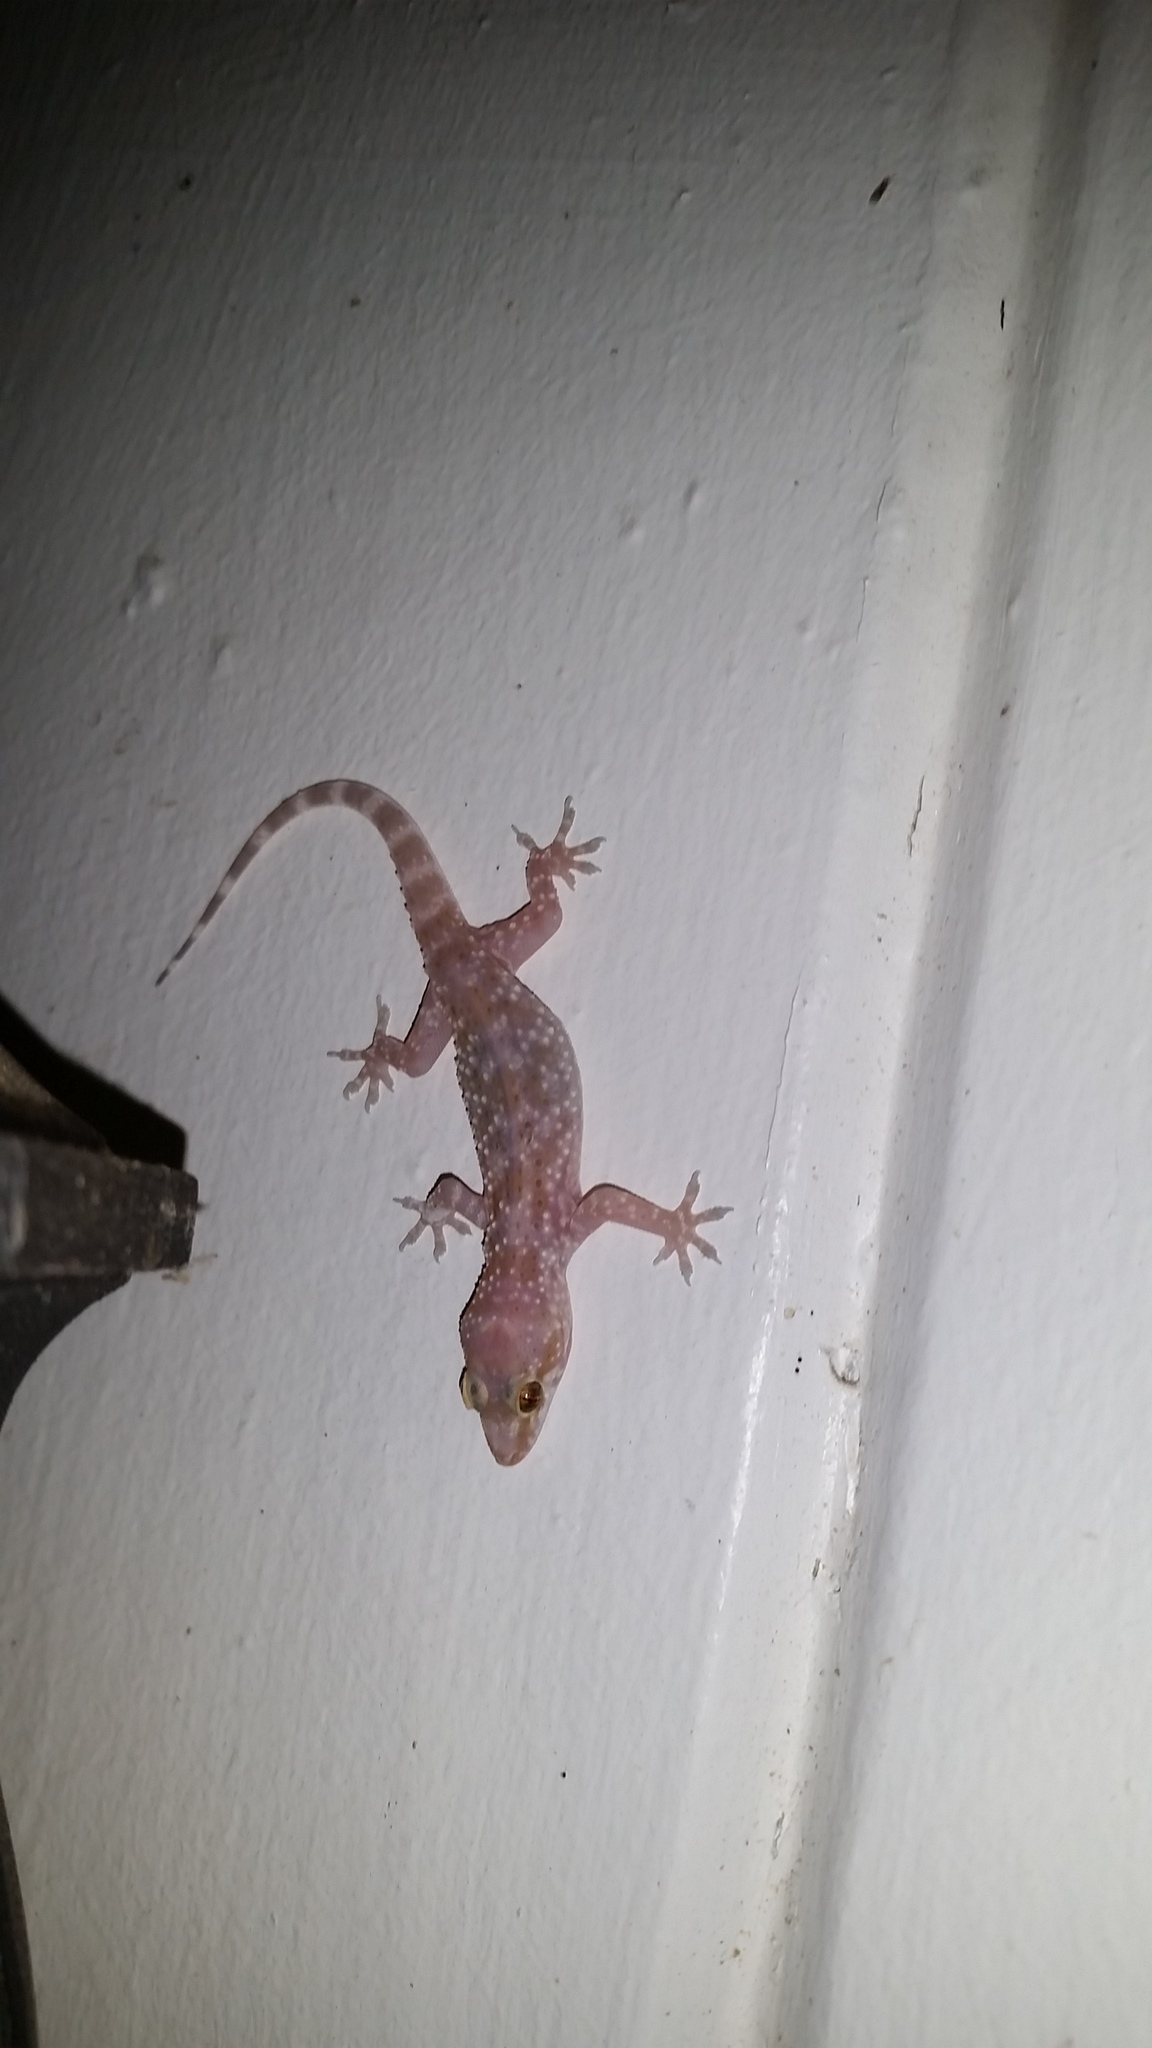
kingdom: Animalia
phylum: Chordata
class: Squamata
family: Gekkonidae
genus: Hemidactylus
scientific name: Hemidactylus turcicus
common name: Turkish gecko
